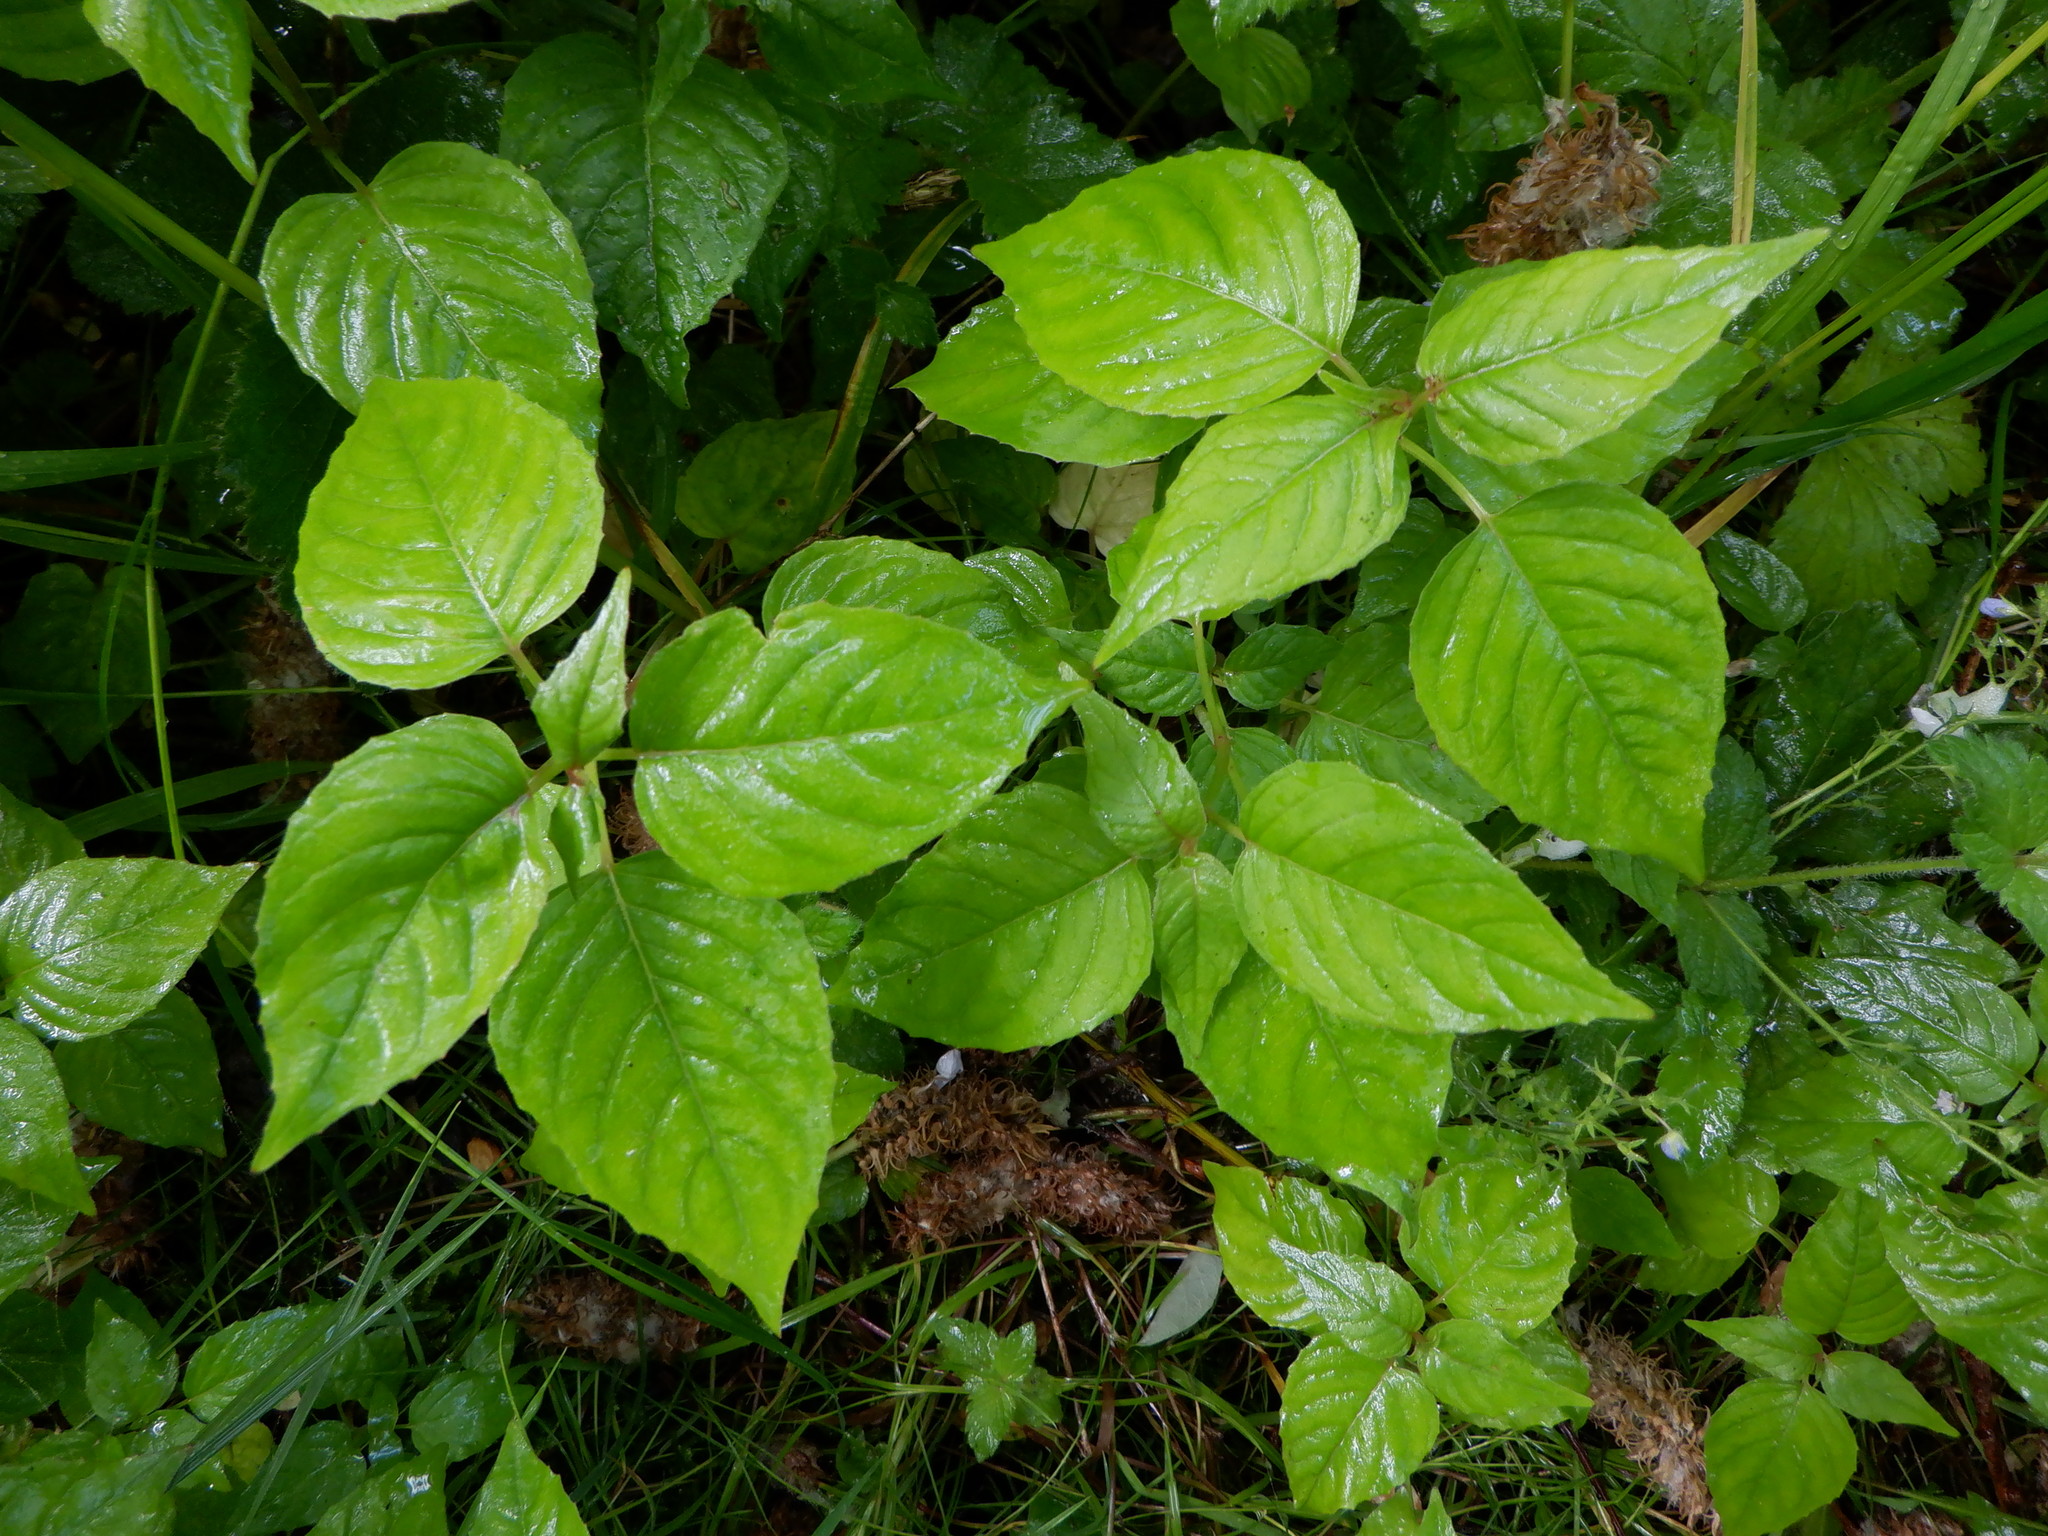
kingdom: Plantae
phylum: Tracheophyta
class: Magnoliopsida
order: Myrtales
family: Onagraceae
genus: Circaea
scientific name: Circaea lutetiana
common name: Enchanter's-nightshade
